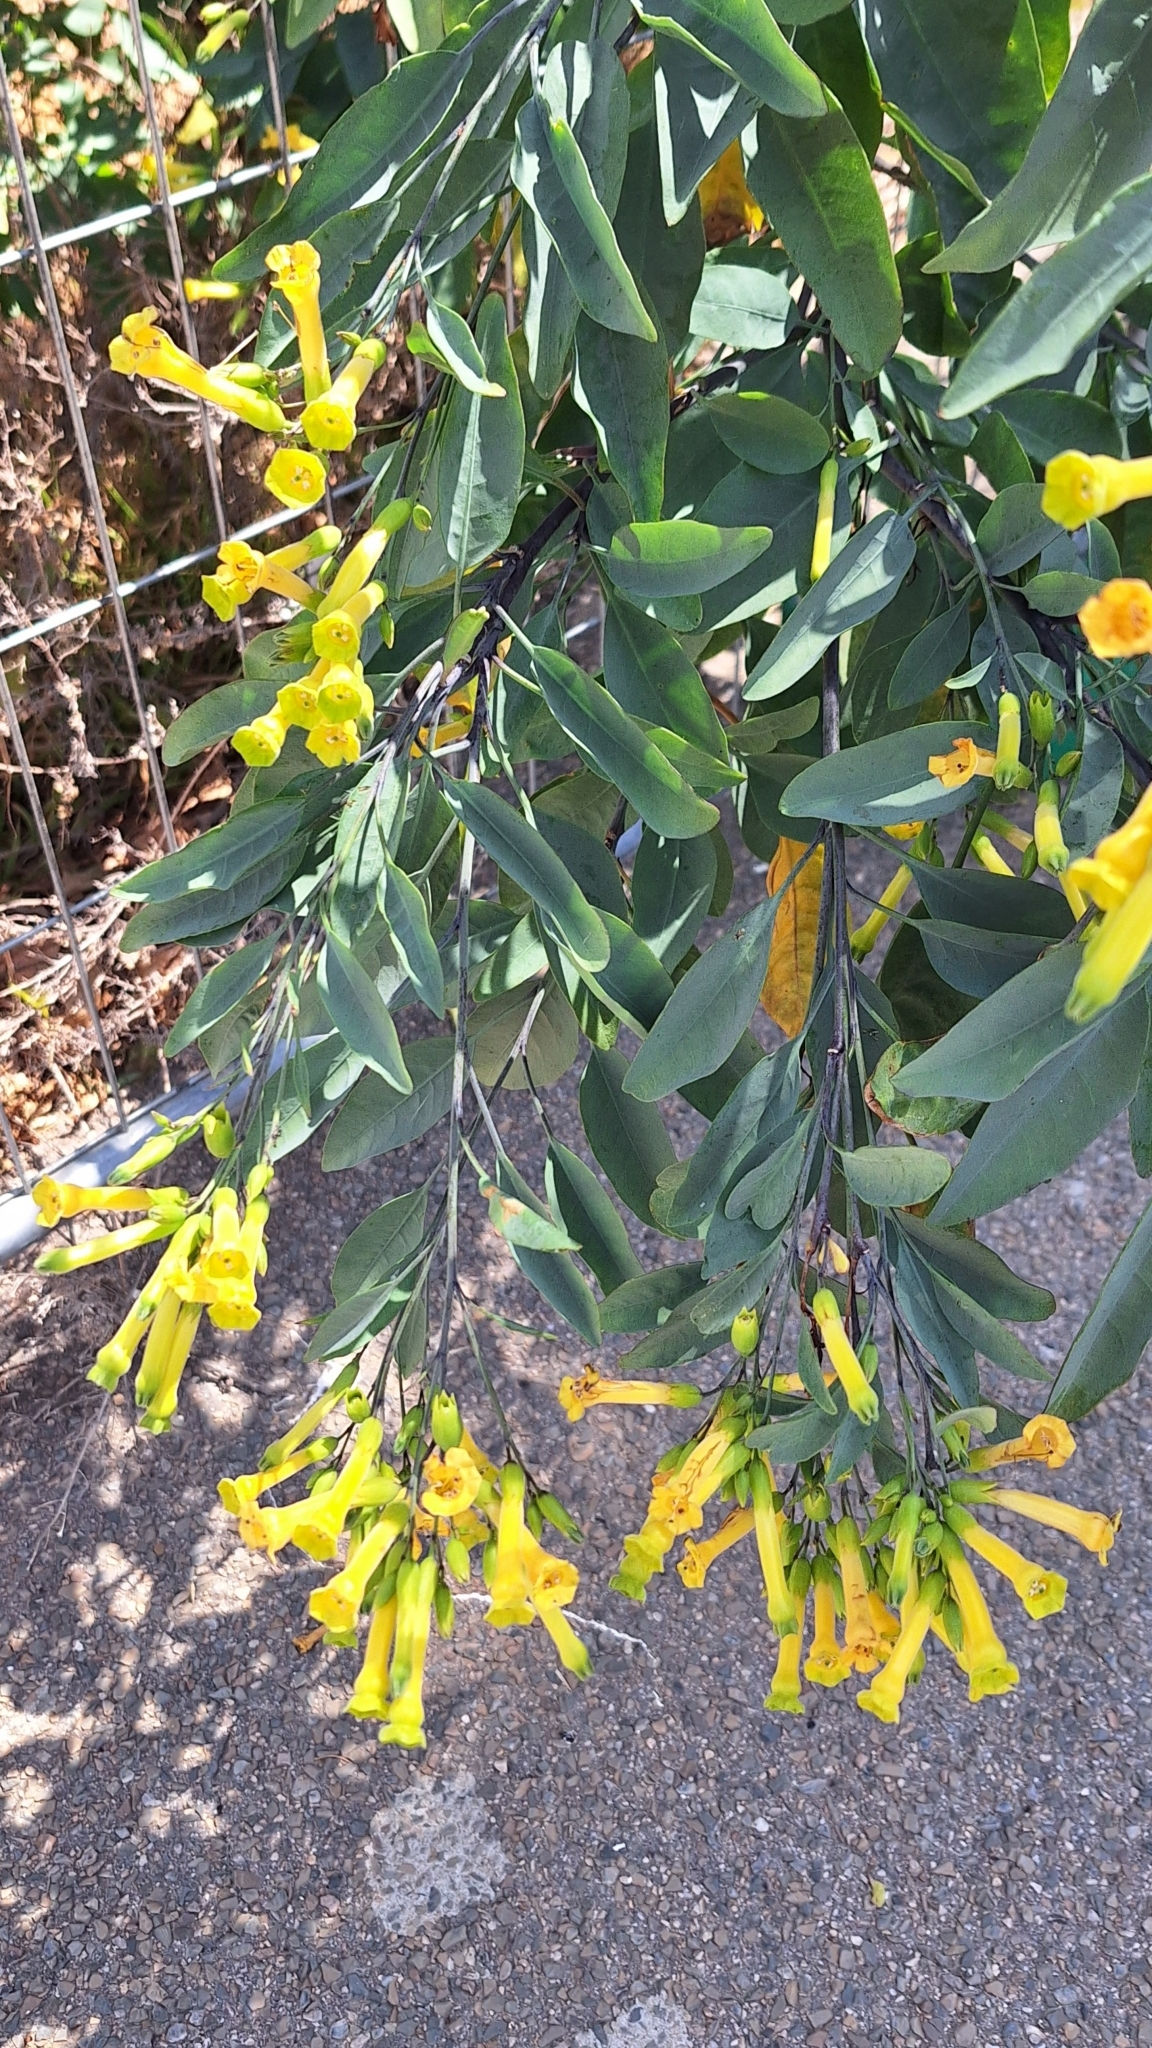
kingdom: Plantae
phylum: Tracheophyta
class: Magnoliopsida
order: Solanales
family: Solanaceae
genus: Nicotiana
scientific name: Nicotiana glauca
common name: Tree tobacco
